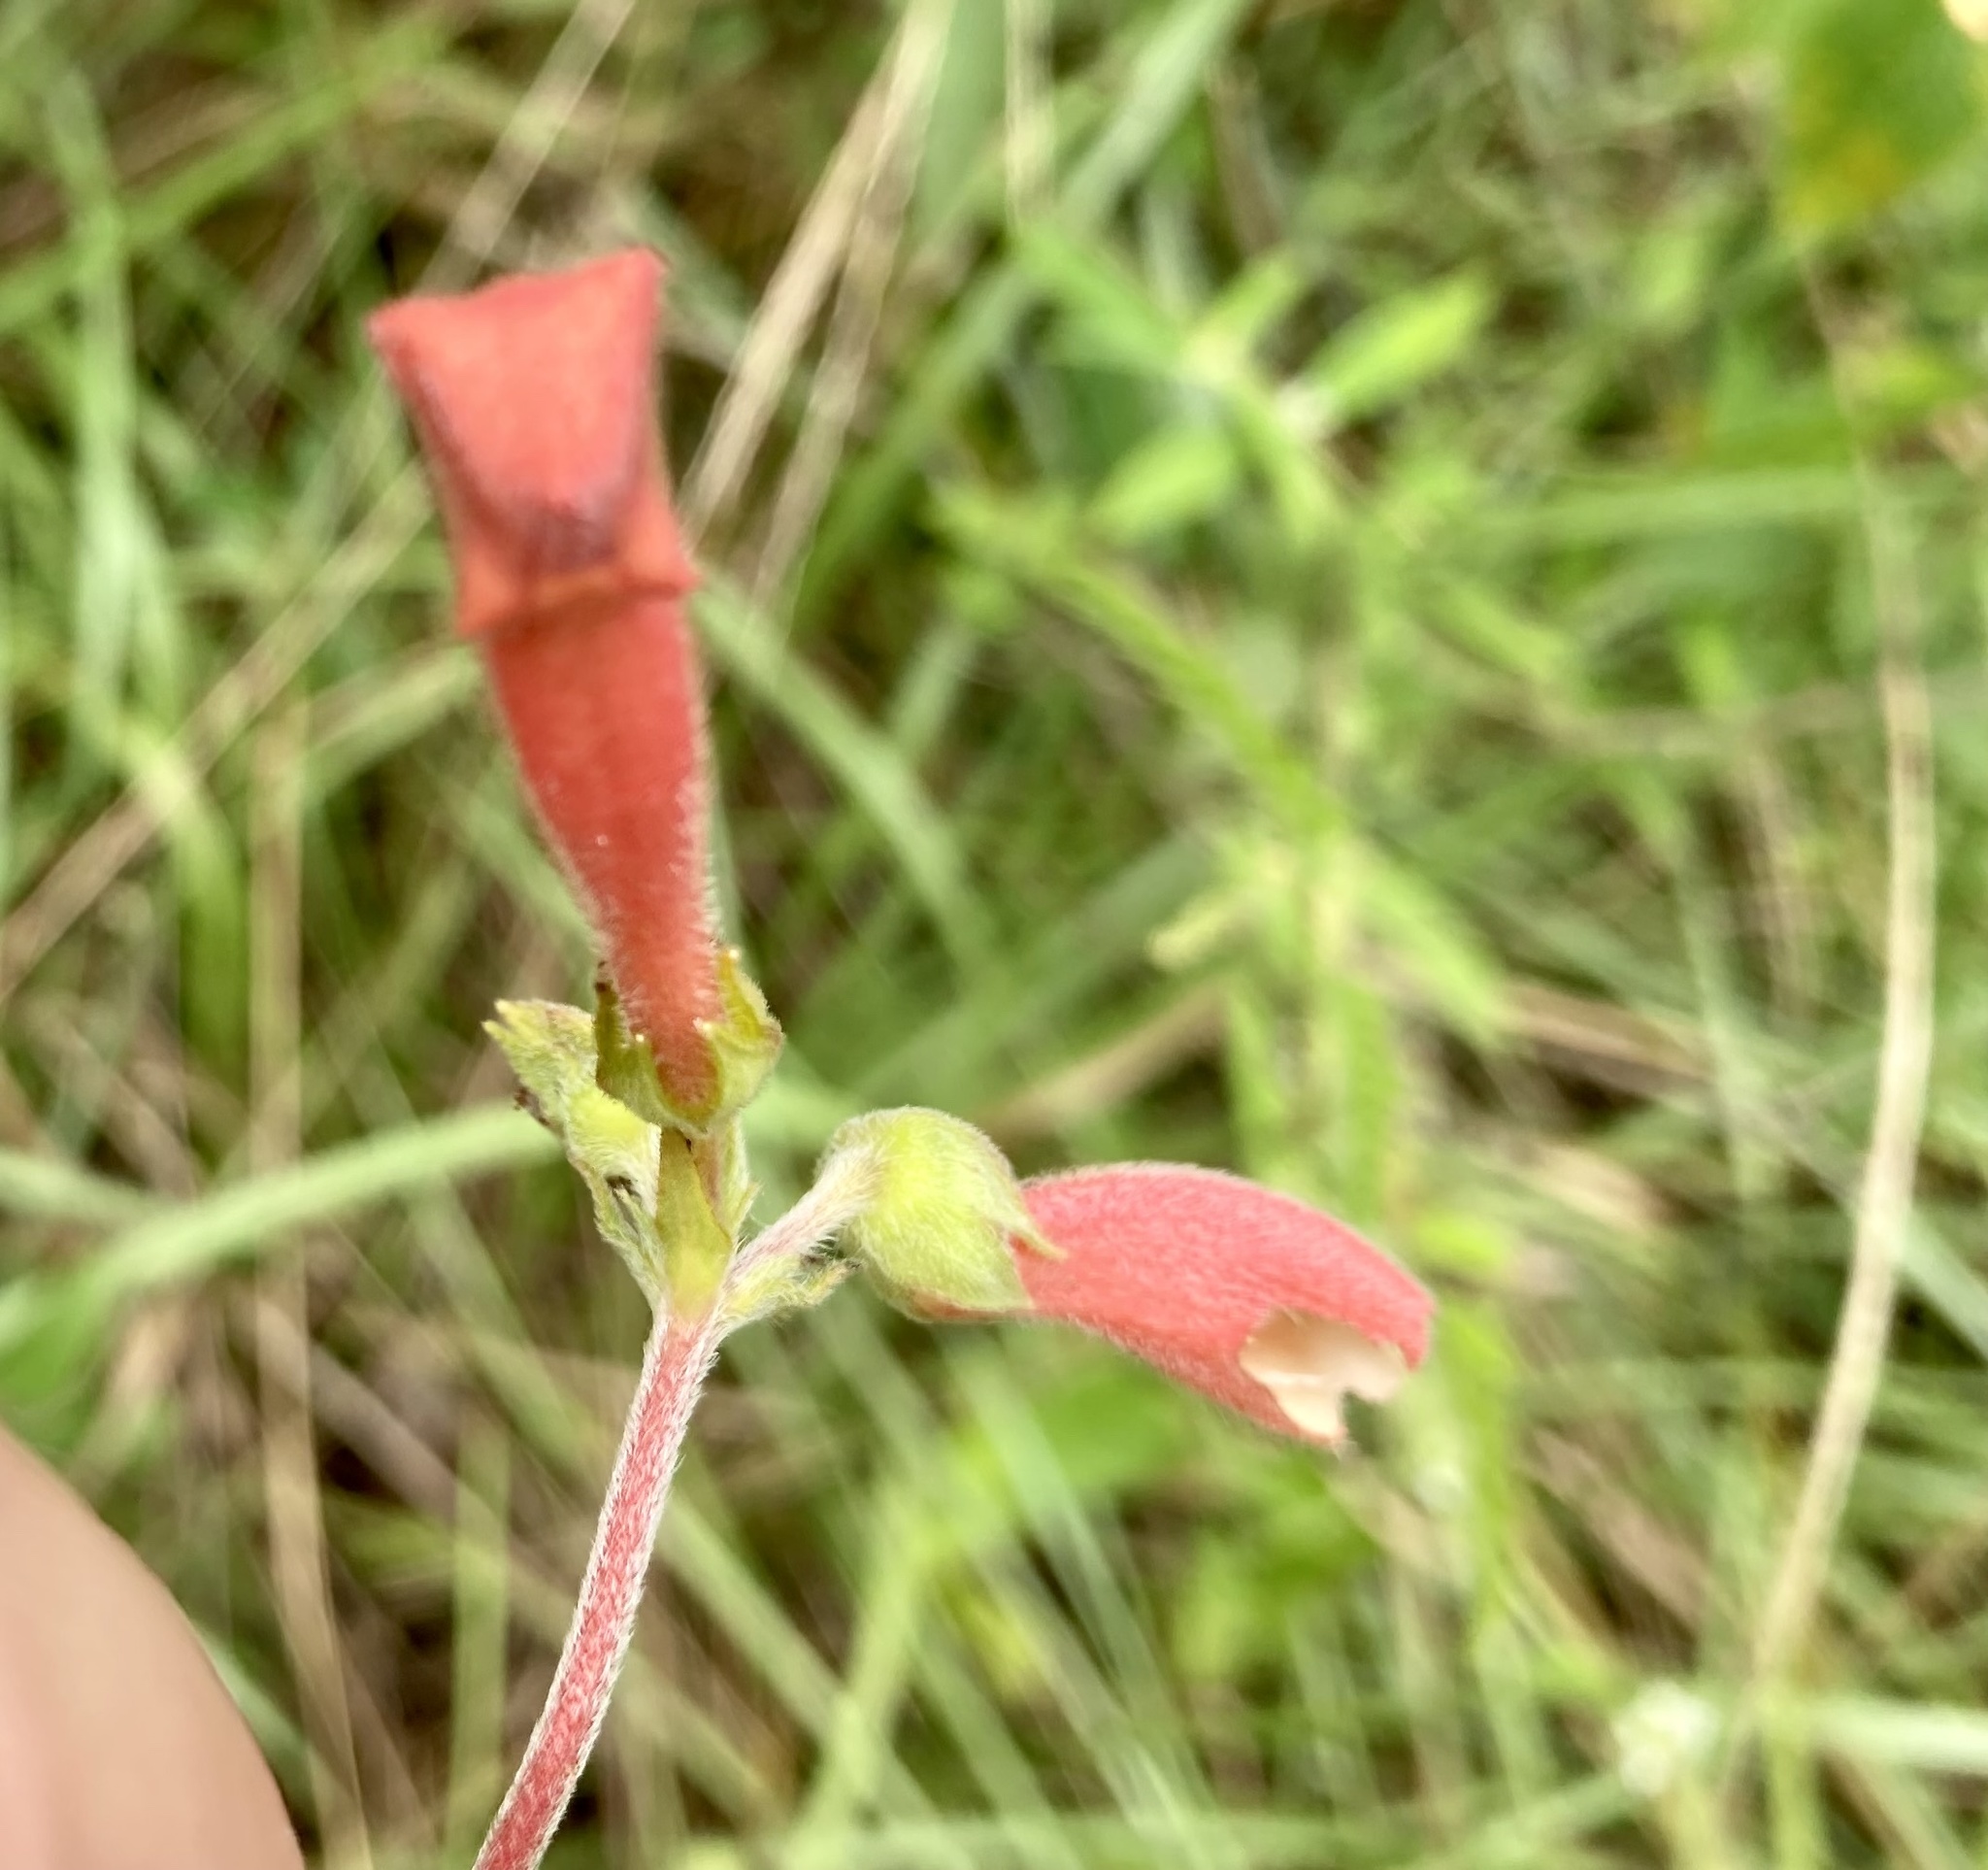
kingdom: Plantae
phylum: Tracheophyta
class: Magnoliopsida
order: Lamiales
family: Gesneriaceae
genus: Sinningia
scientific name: Sinningia elatior
